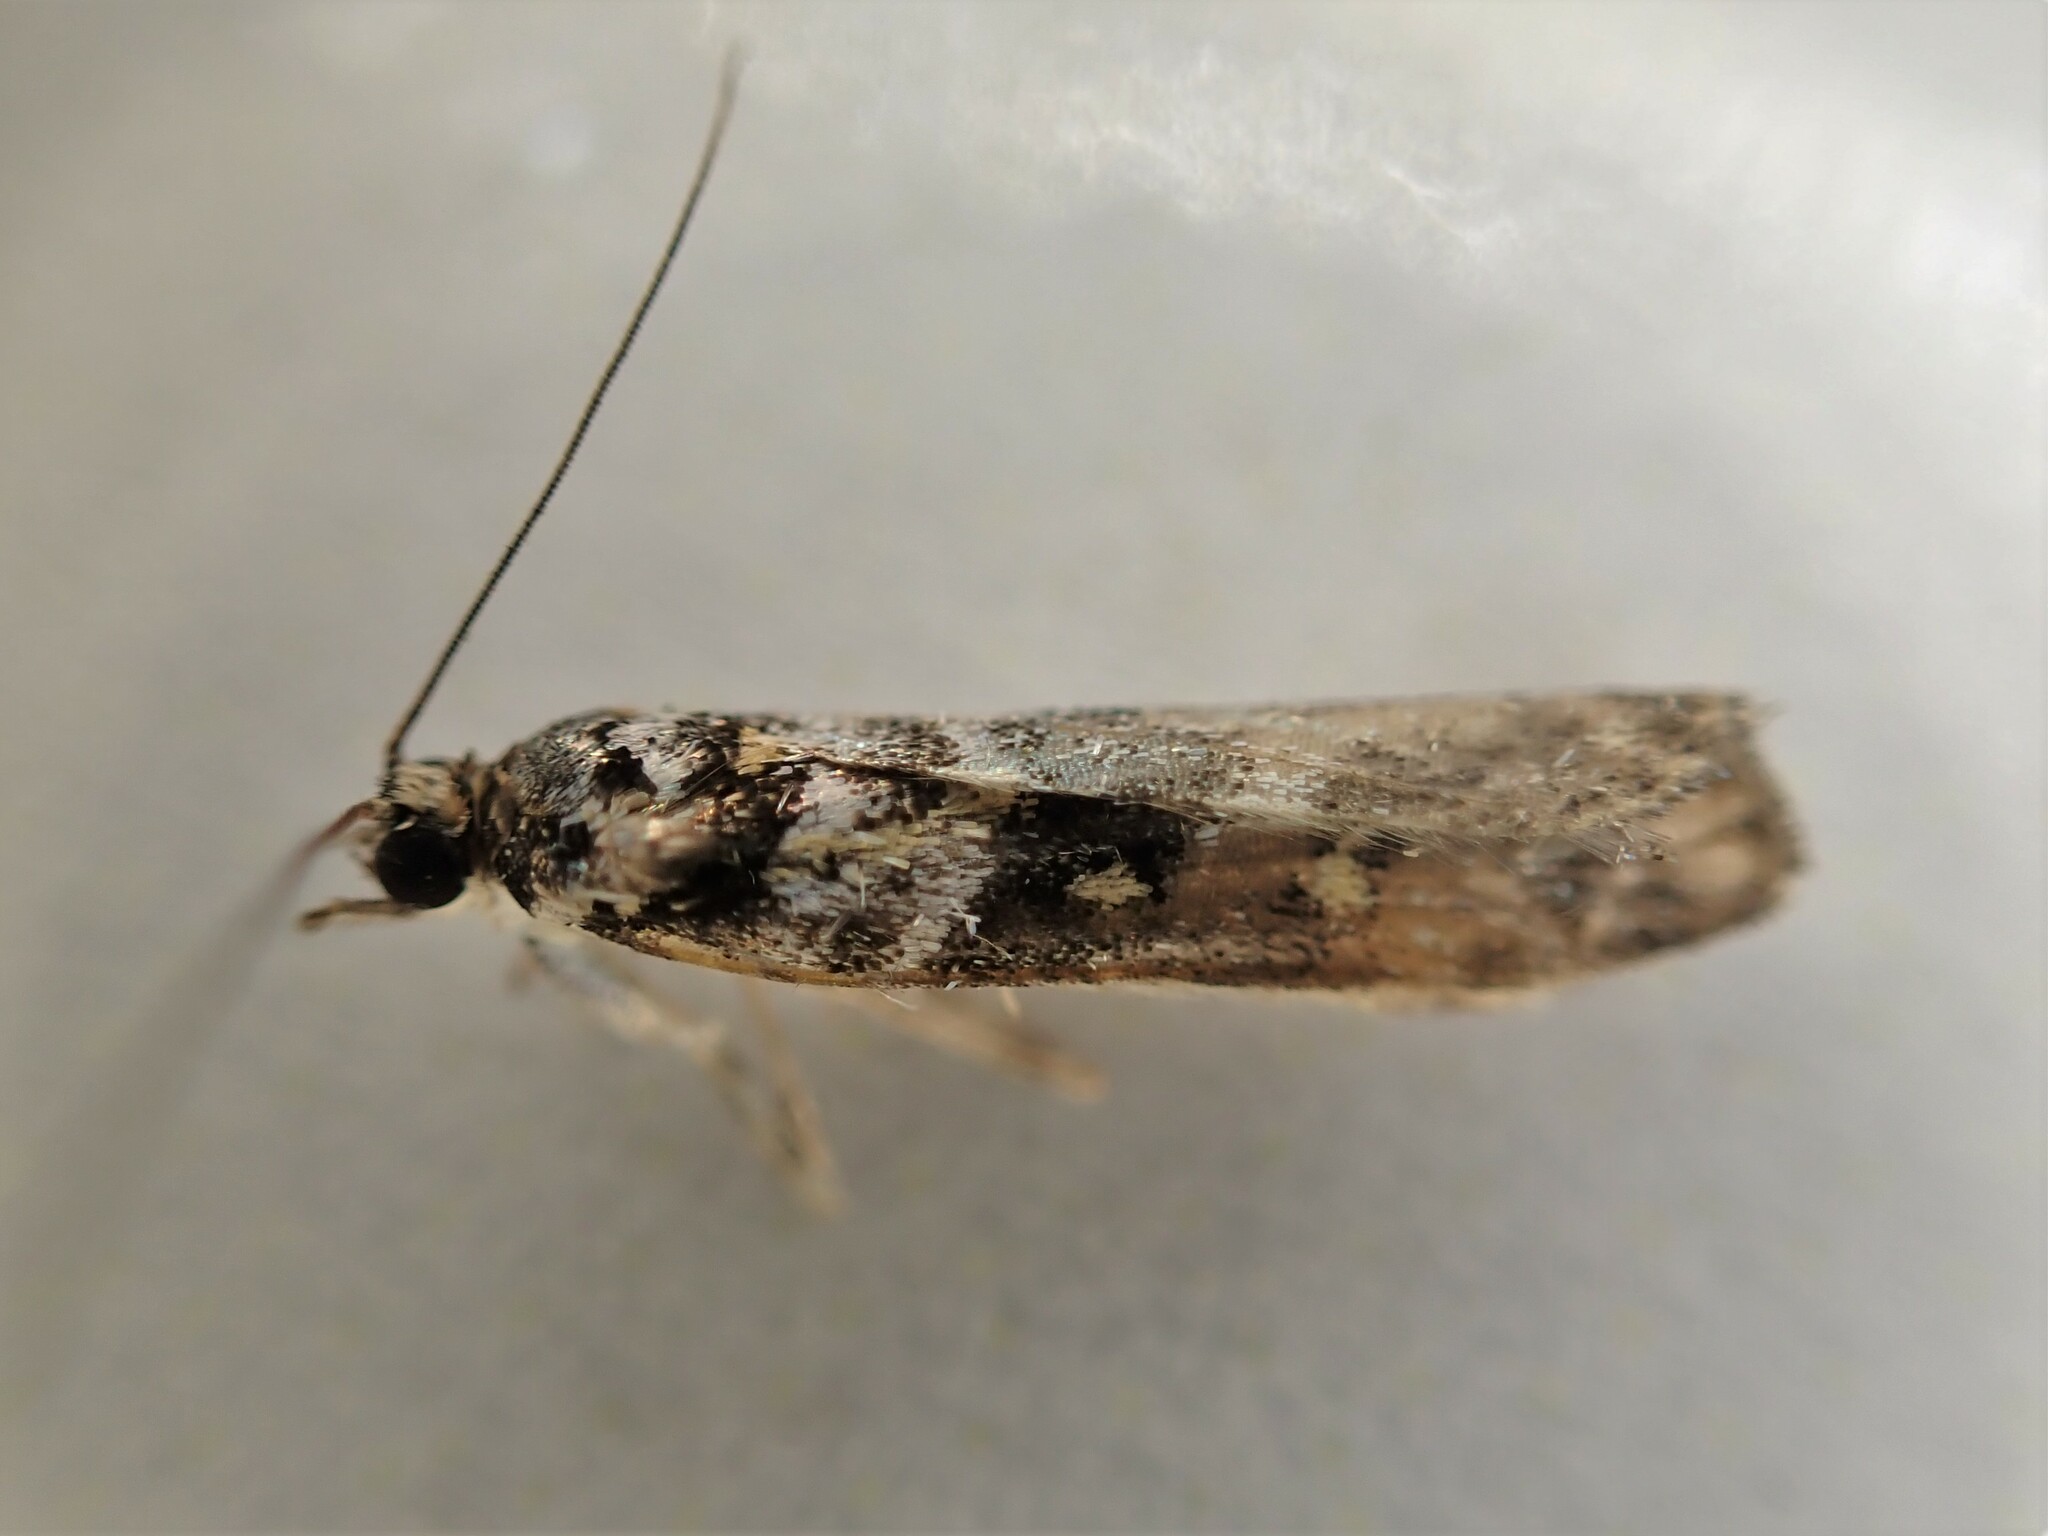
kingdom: Animalia
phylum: Arthropoda
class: Insecta
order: Lepidoptera
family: Crambidae
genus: Eudonia
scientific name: Eudonia diphtheralis
